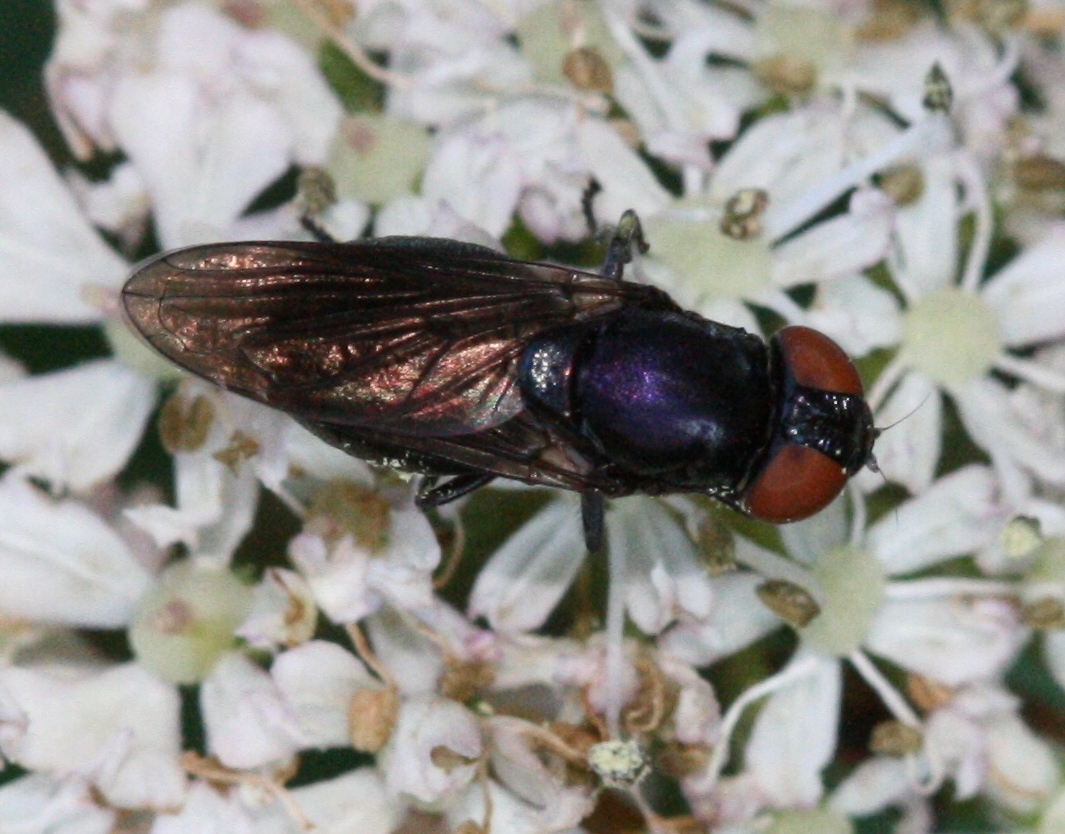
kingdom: Animalia
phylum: Arthropoda
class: Insecta
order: Diptera
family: Syrphidae
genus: Chrysogaster
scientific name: Chrysogaster solstitialis
